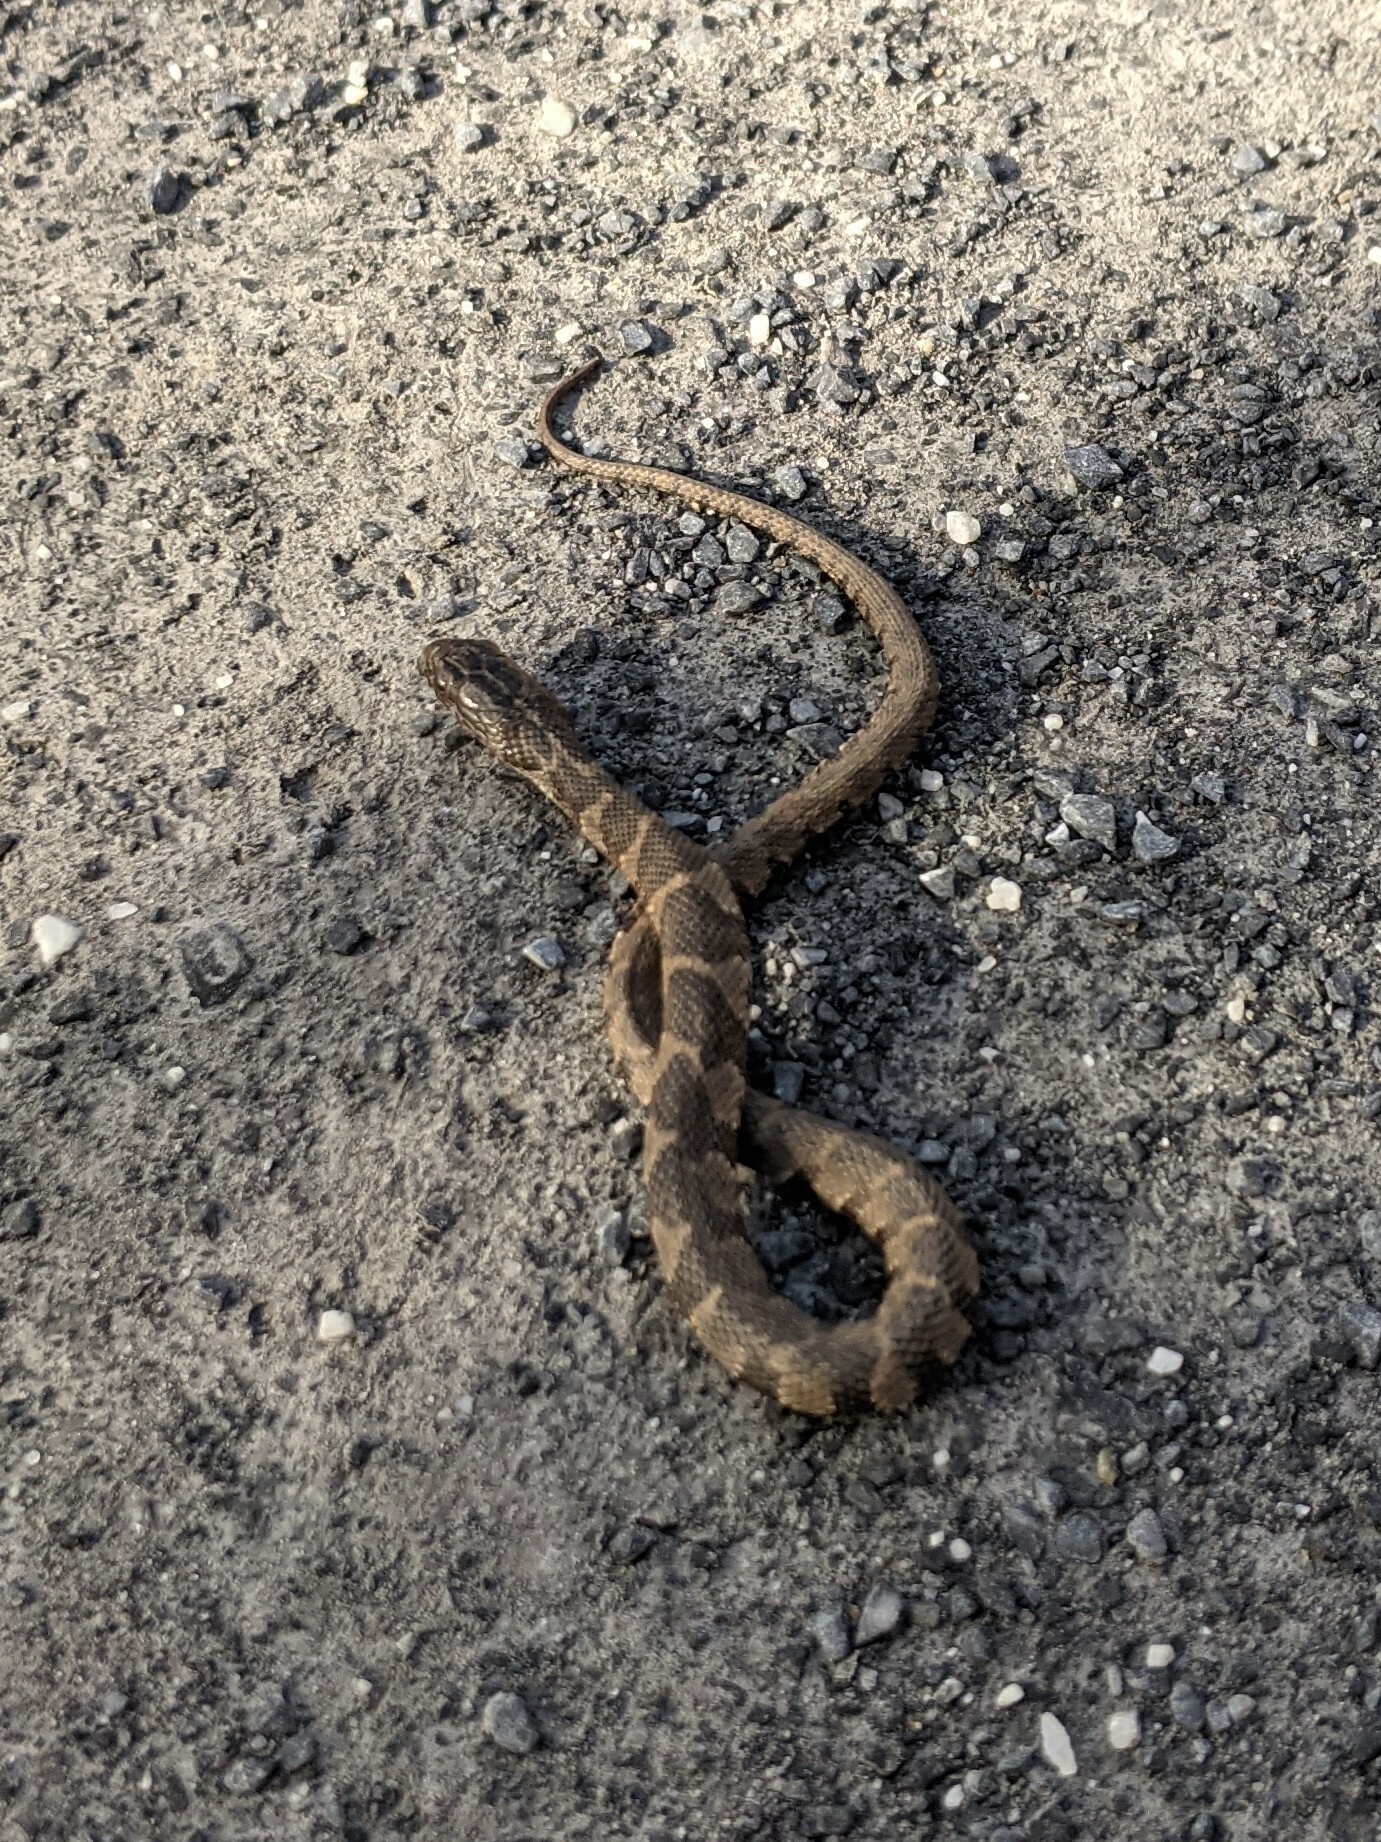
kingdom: Animalia
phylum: Chordata
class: Squamata
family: Colubridae
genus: Nerodia
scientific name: Nerodia sipedon
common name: Northern water snake
